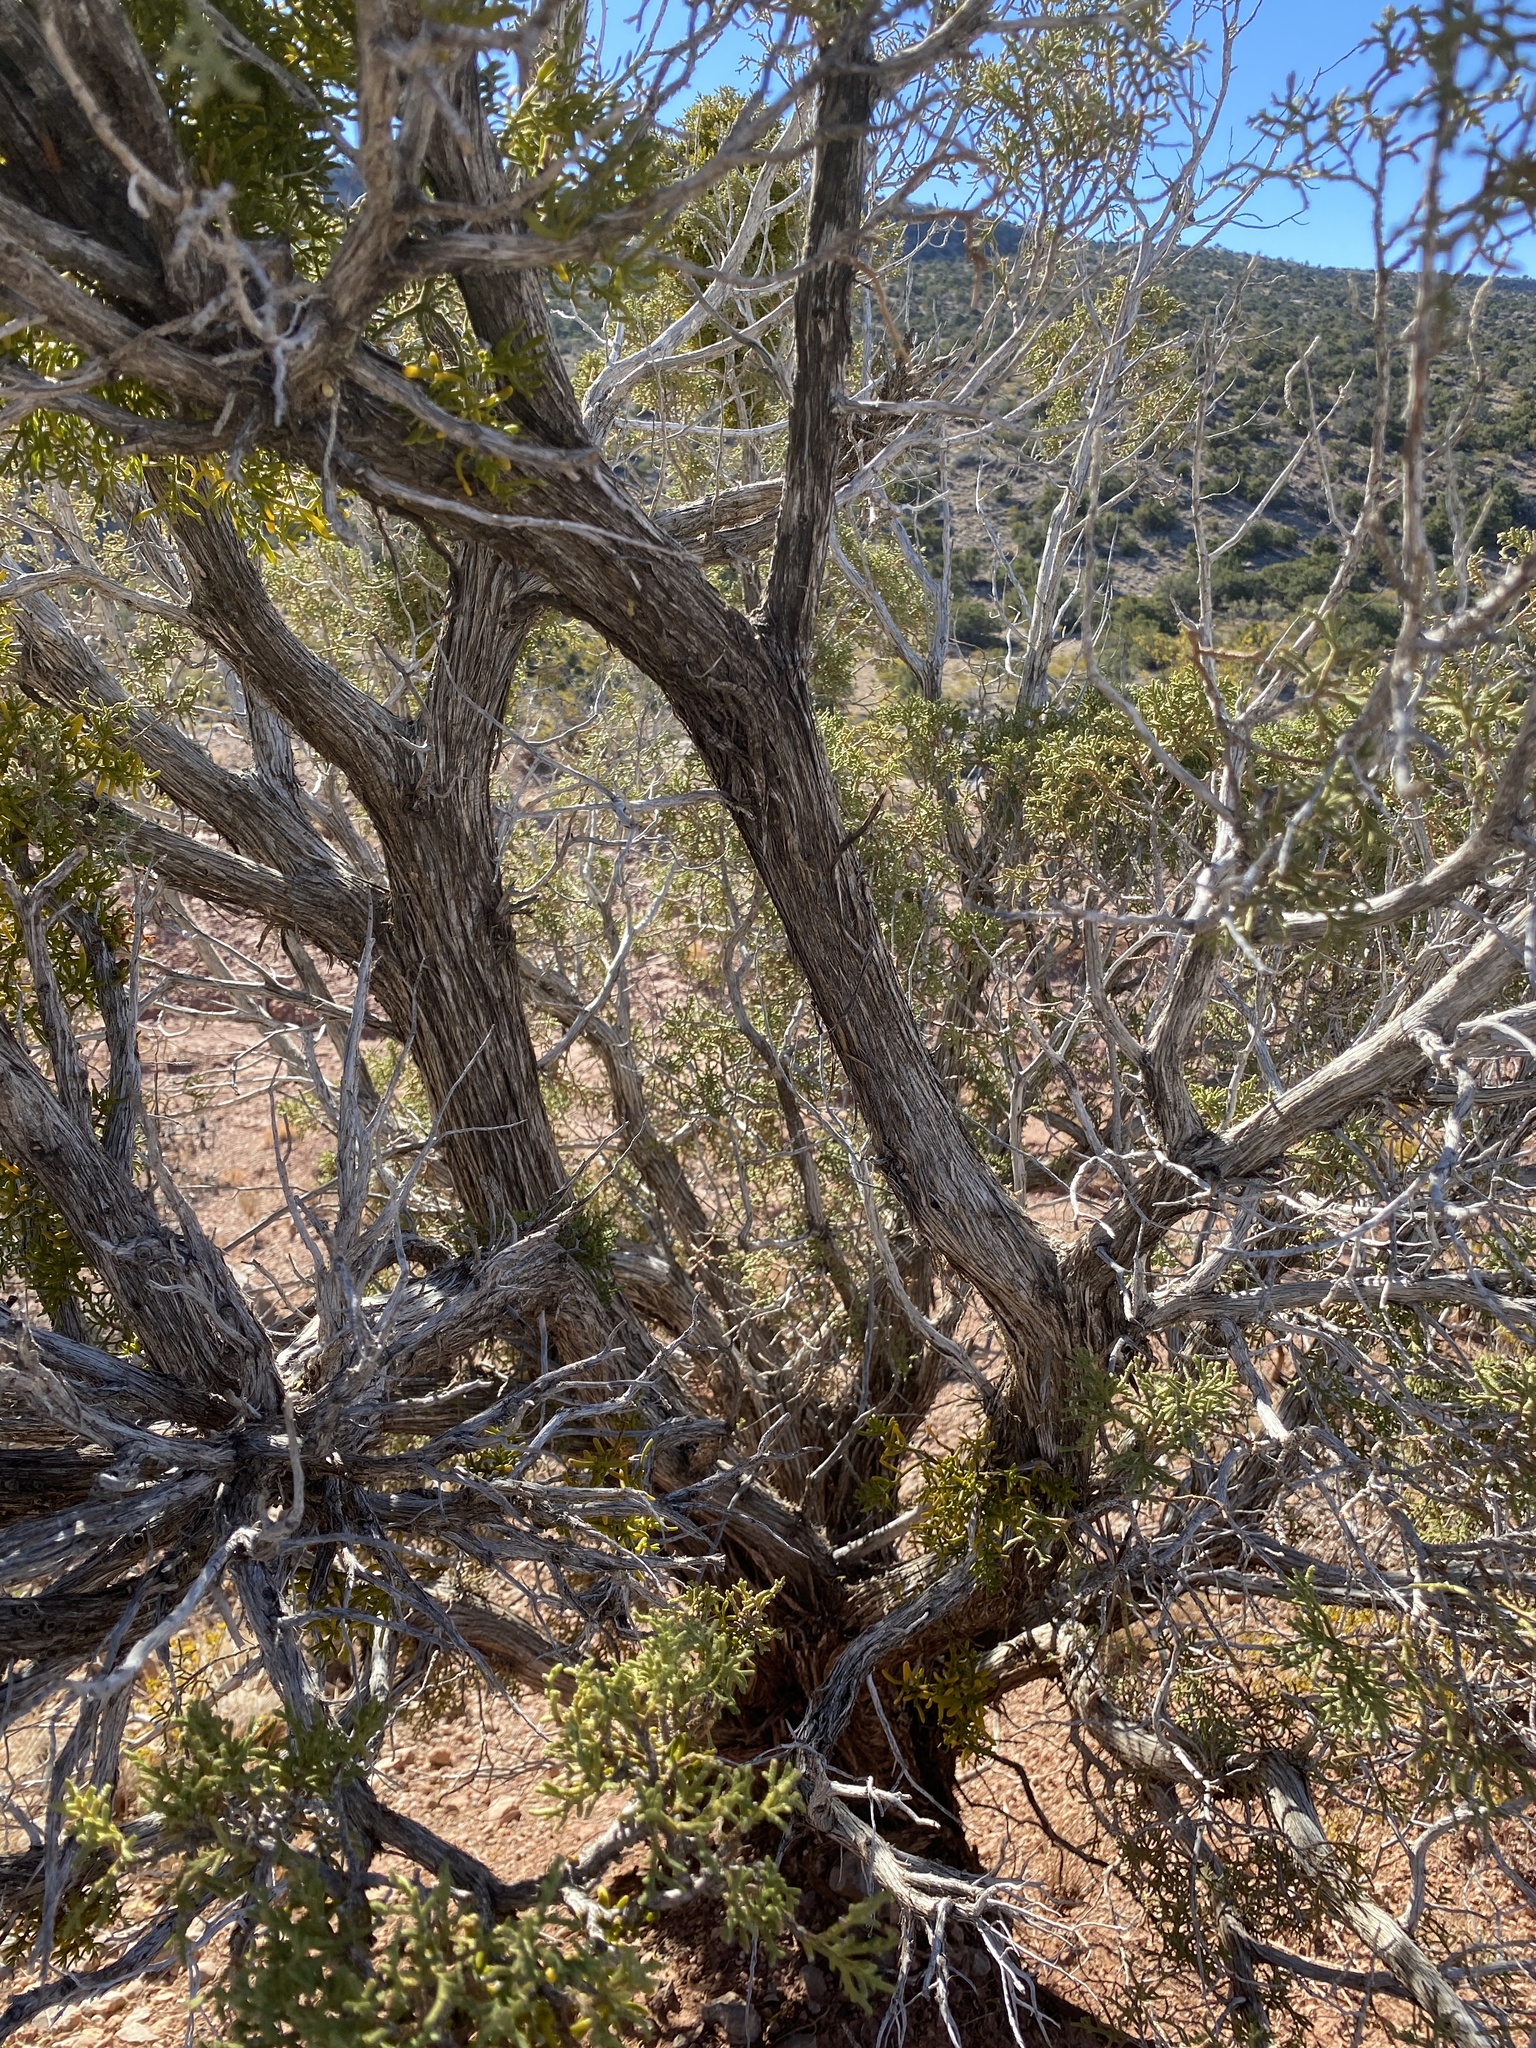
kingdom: Plantae
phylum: Tracheophyta
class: Pinopsida
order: Pinales
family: Cupressaceae
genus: Juniperus
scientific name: Juniperus monosperma
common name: One-seed juniper
